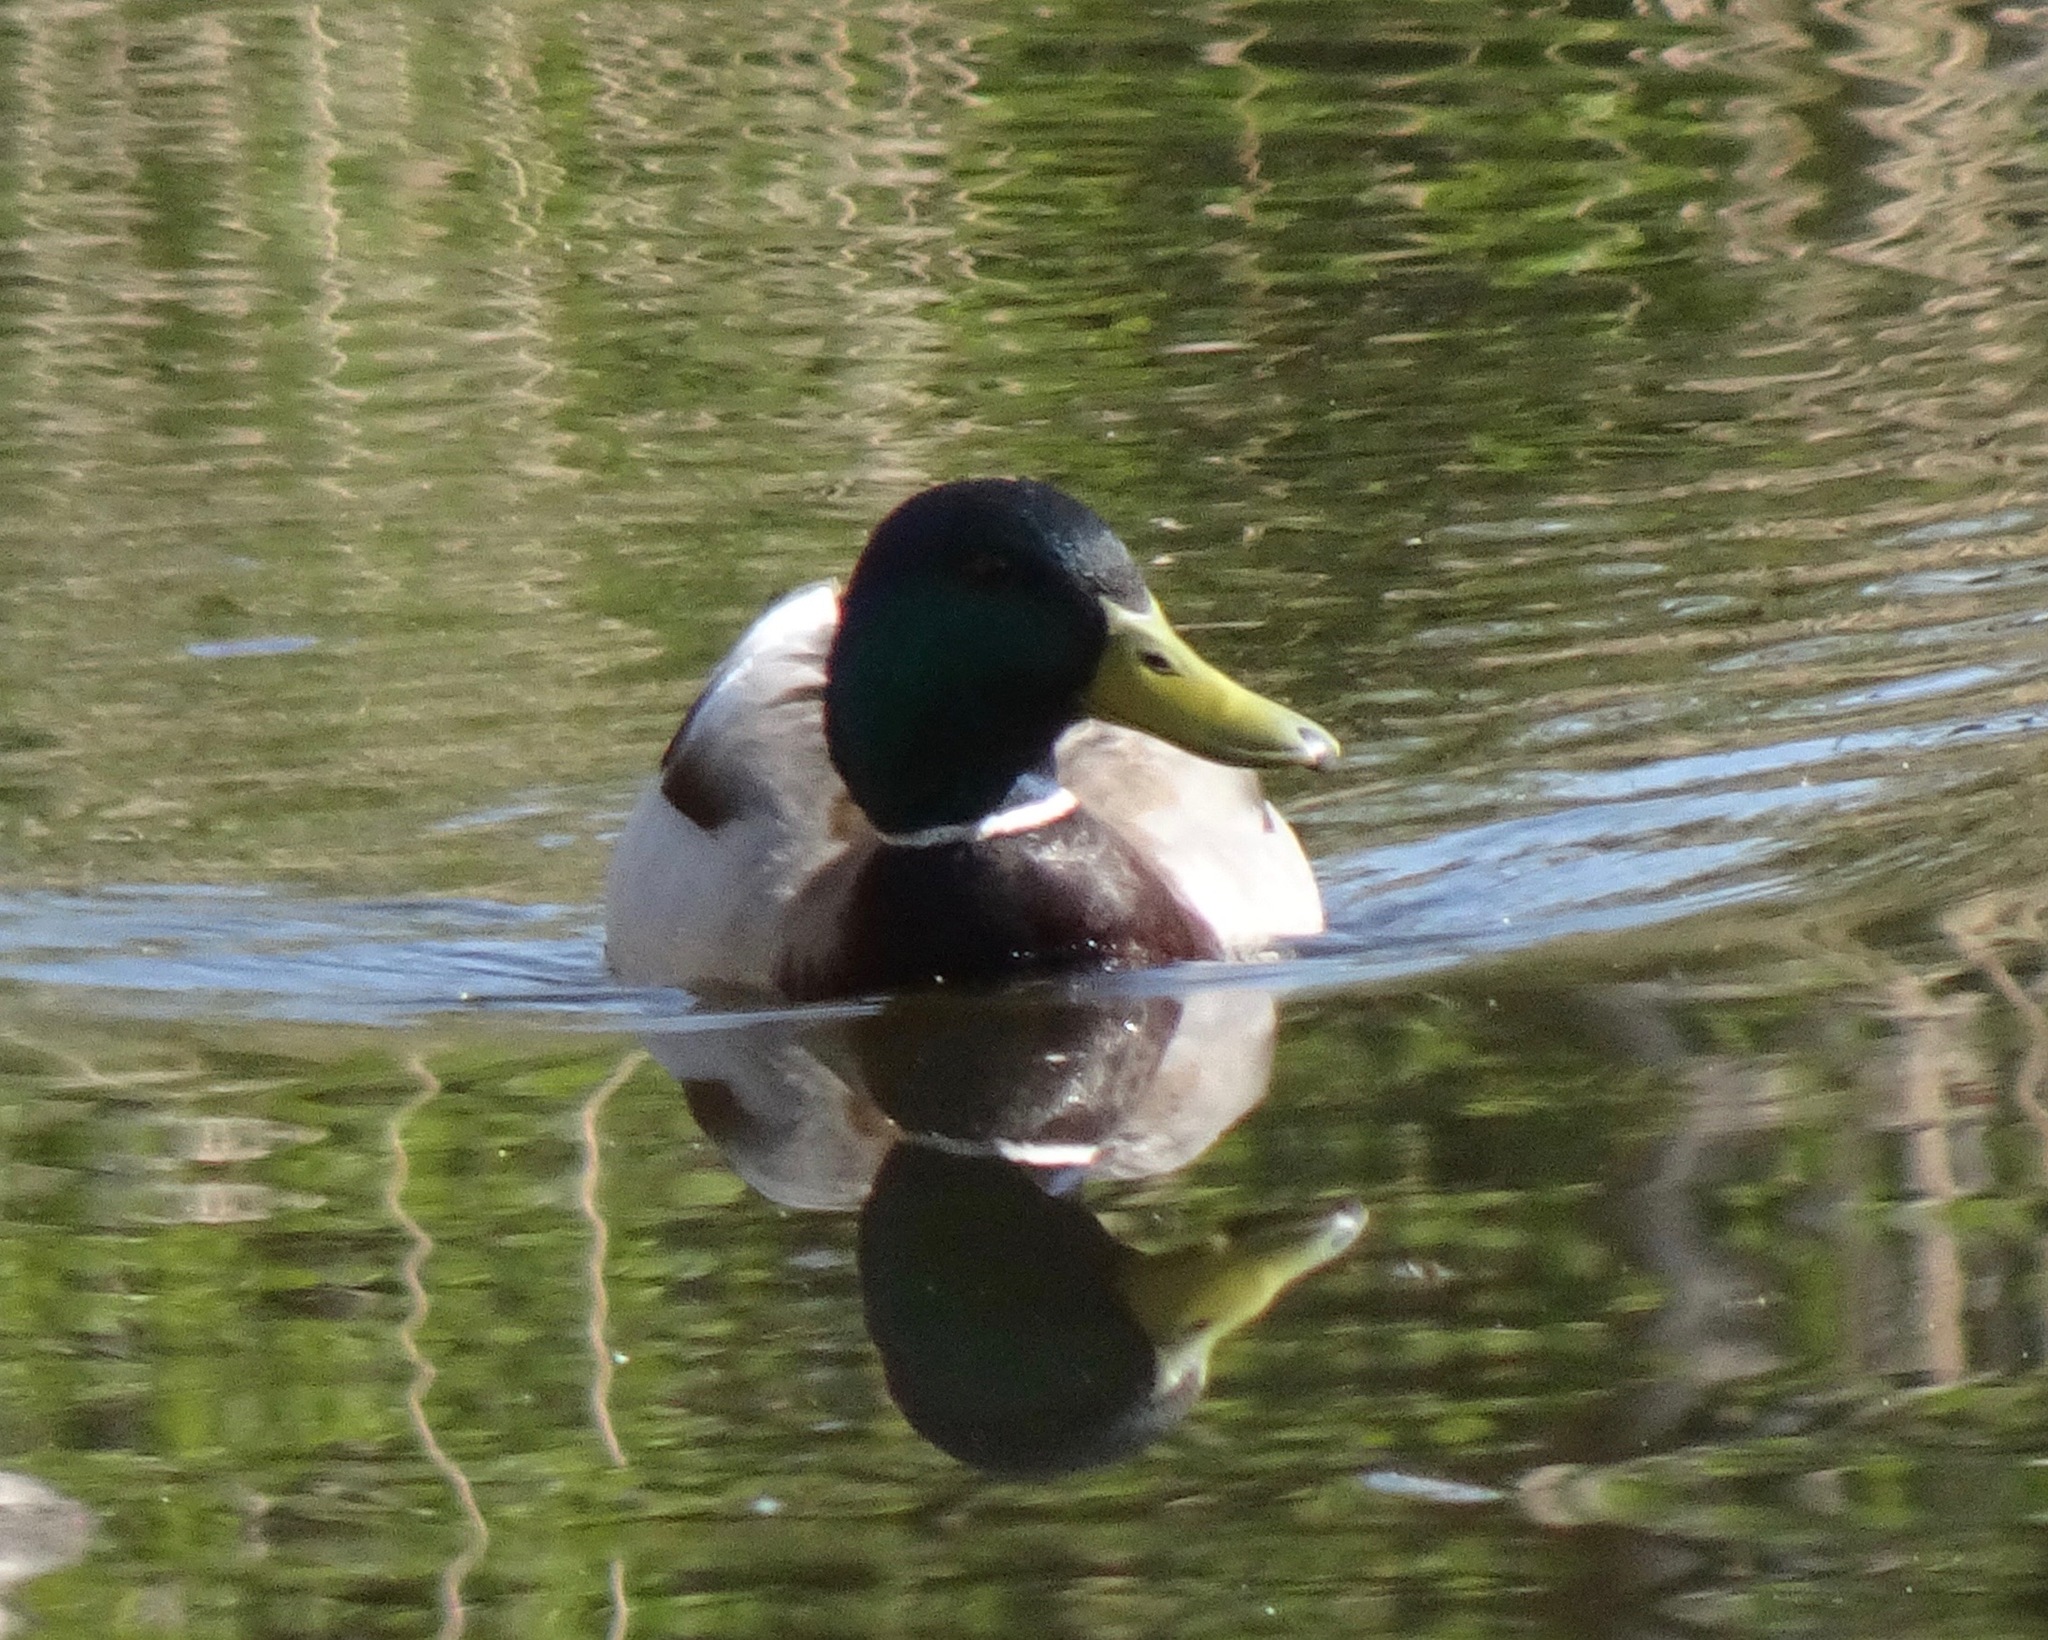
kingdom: Animalia
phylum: Chordata
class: Aves
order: Anseriformes
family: Anatidae
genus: Anas
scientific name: Anas platyrhynchos
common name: Mallard
